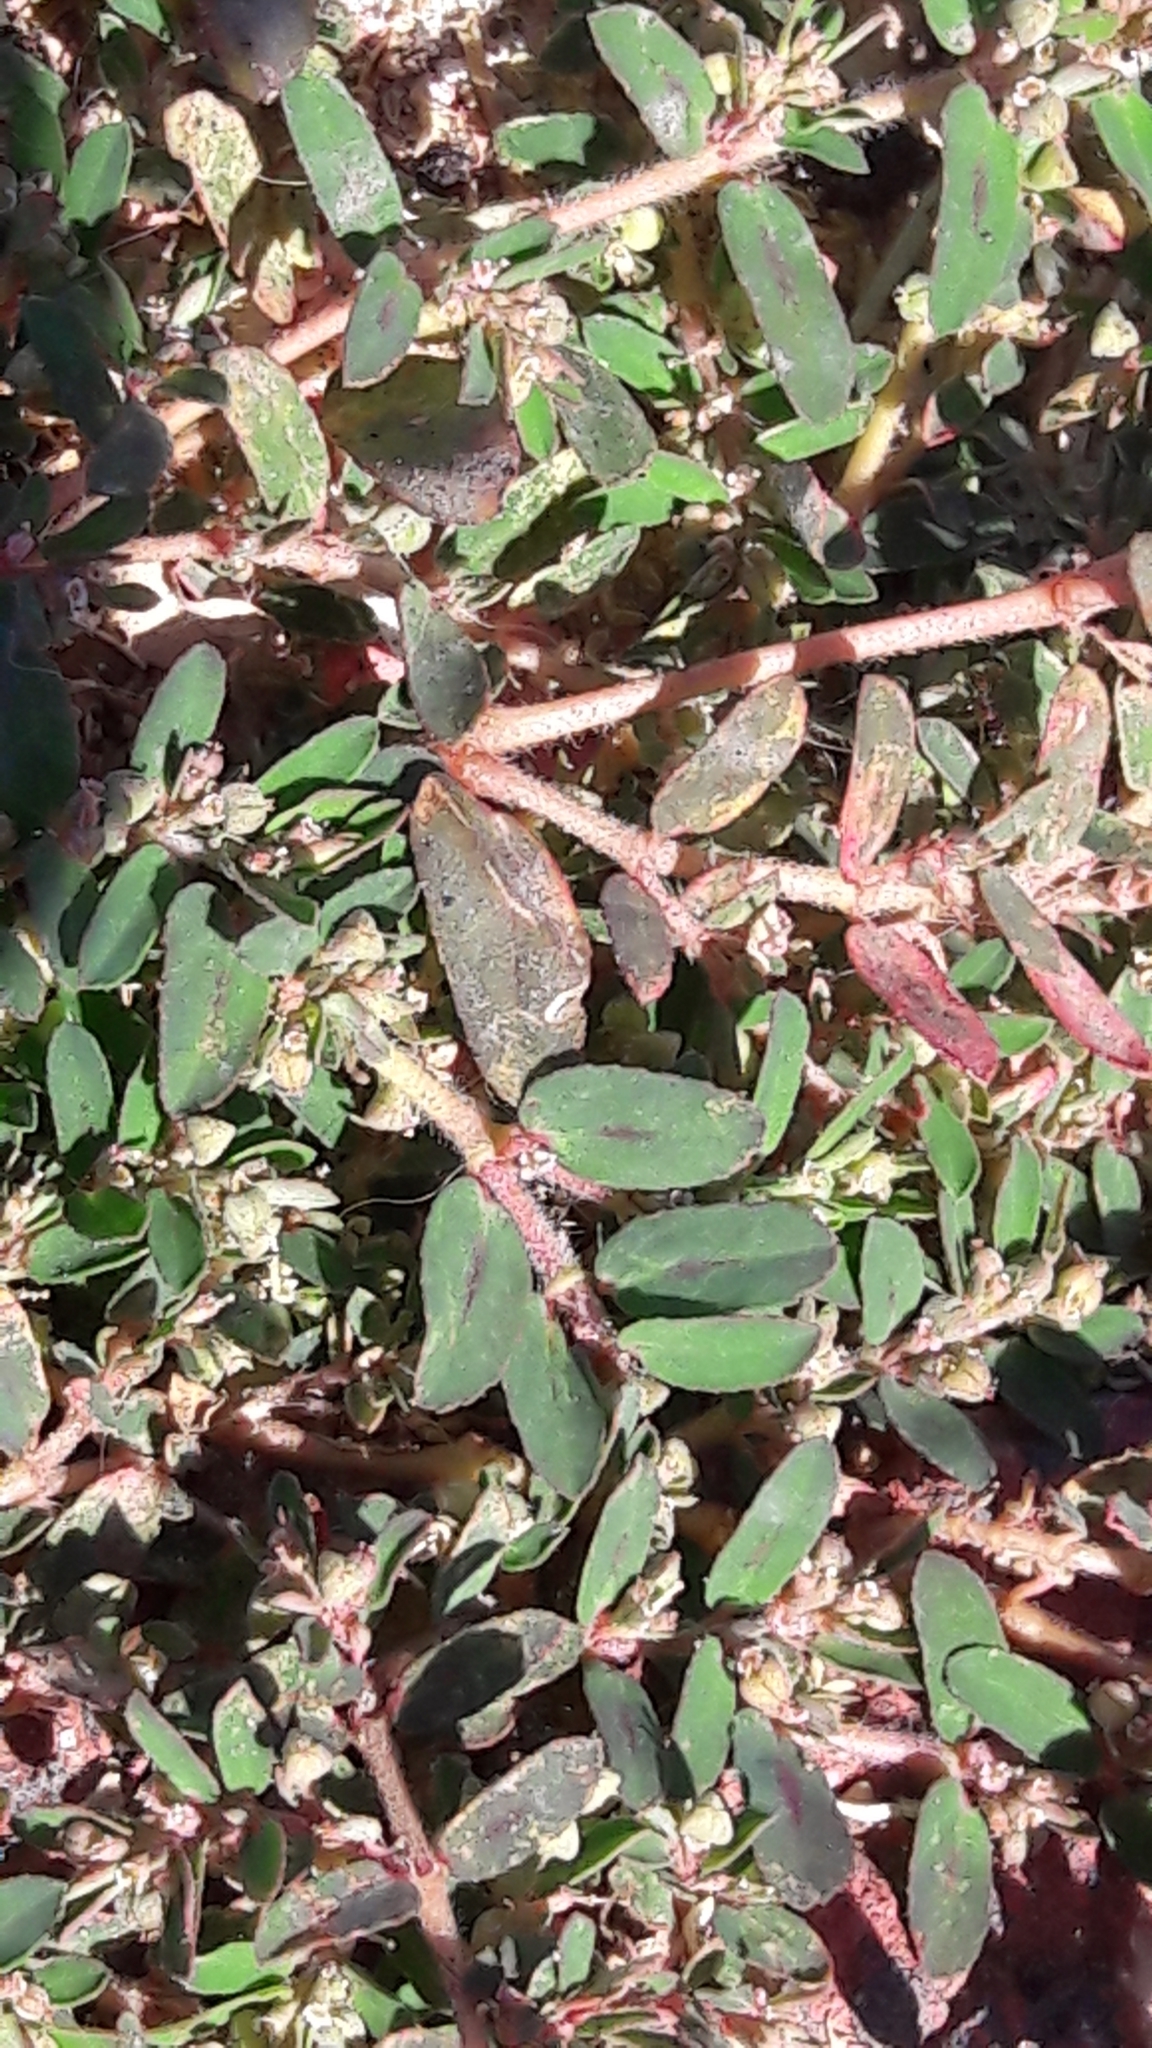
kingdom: Plantae
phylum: Tracheophyta
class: Magnoliopsida
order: Malpighiales
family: Euphorbiaceae
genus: Euphorbia
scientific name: Euphorbia maculata
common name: Spotted spurge
